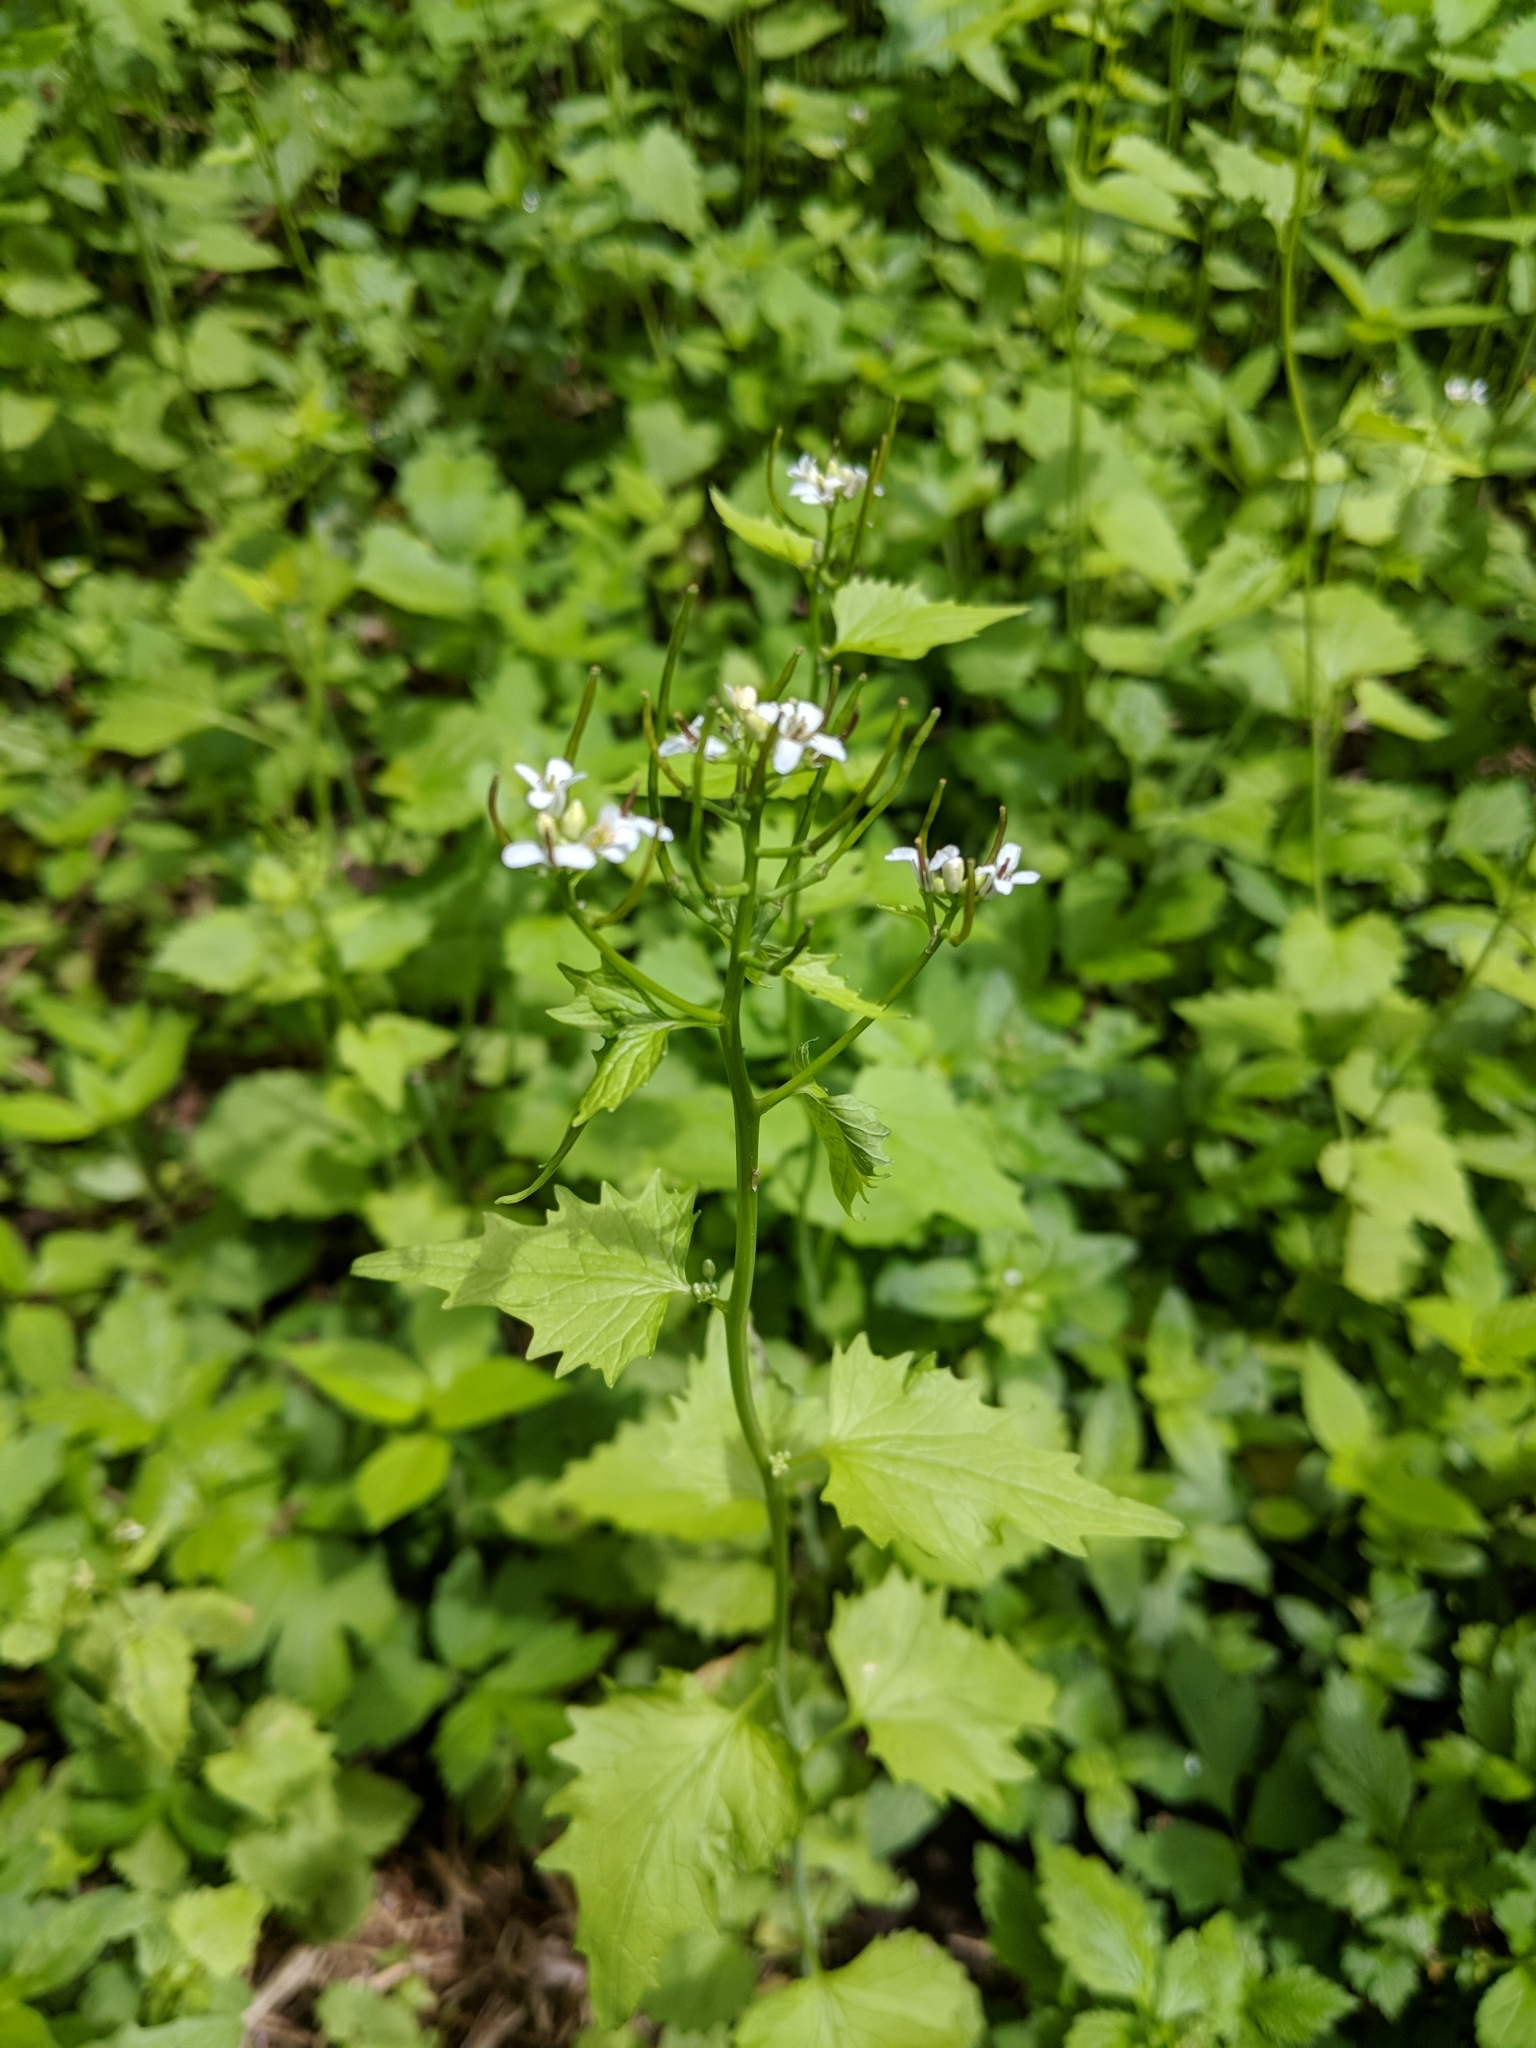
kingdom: Plantae
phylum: Tracheophyta
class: Magnoliopsida
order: Brassicales
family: Brassicaceae
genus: Alliaria
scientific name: Alliaria petiolata
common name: Garlic mustard
